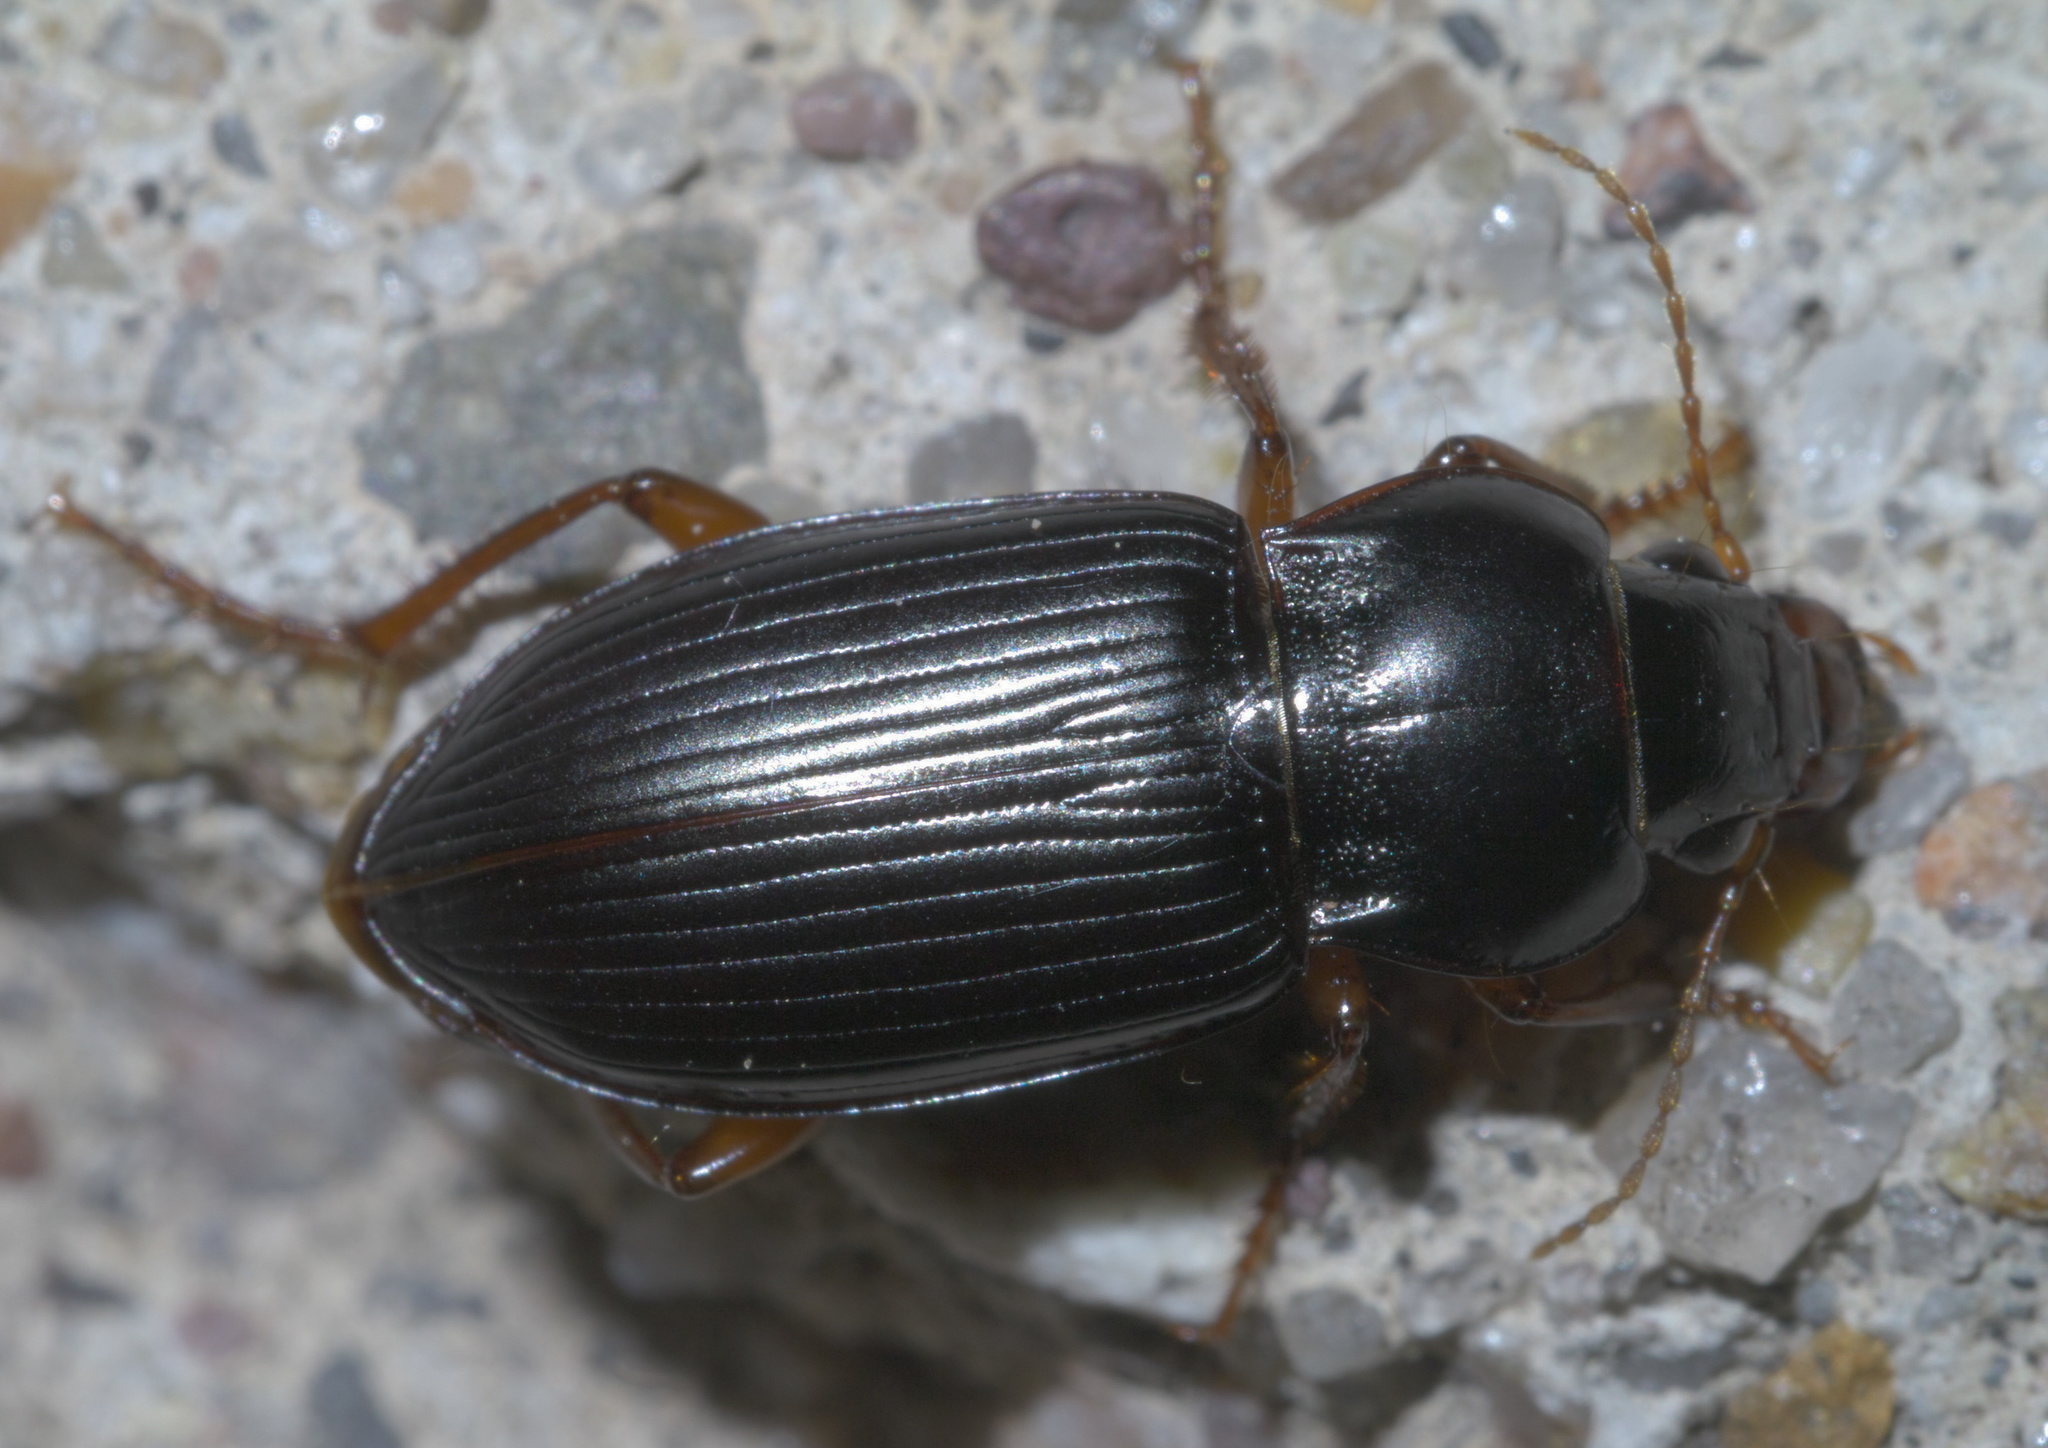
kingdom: Animalia
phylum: Arthropoda
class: Insecta
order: Coleoptera
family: Carabidae
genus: Amara
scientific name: Amara carinata
